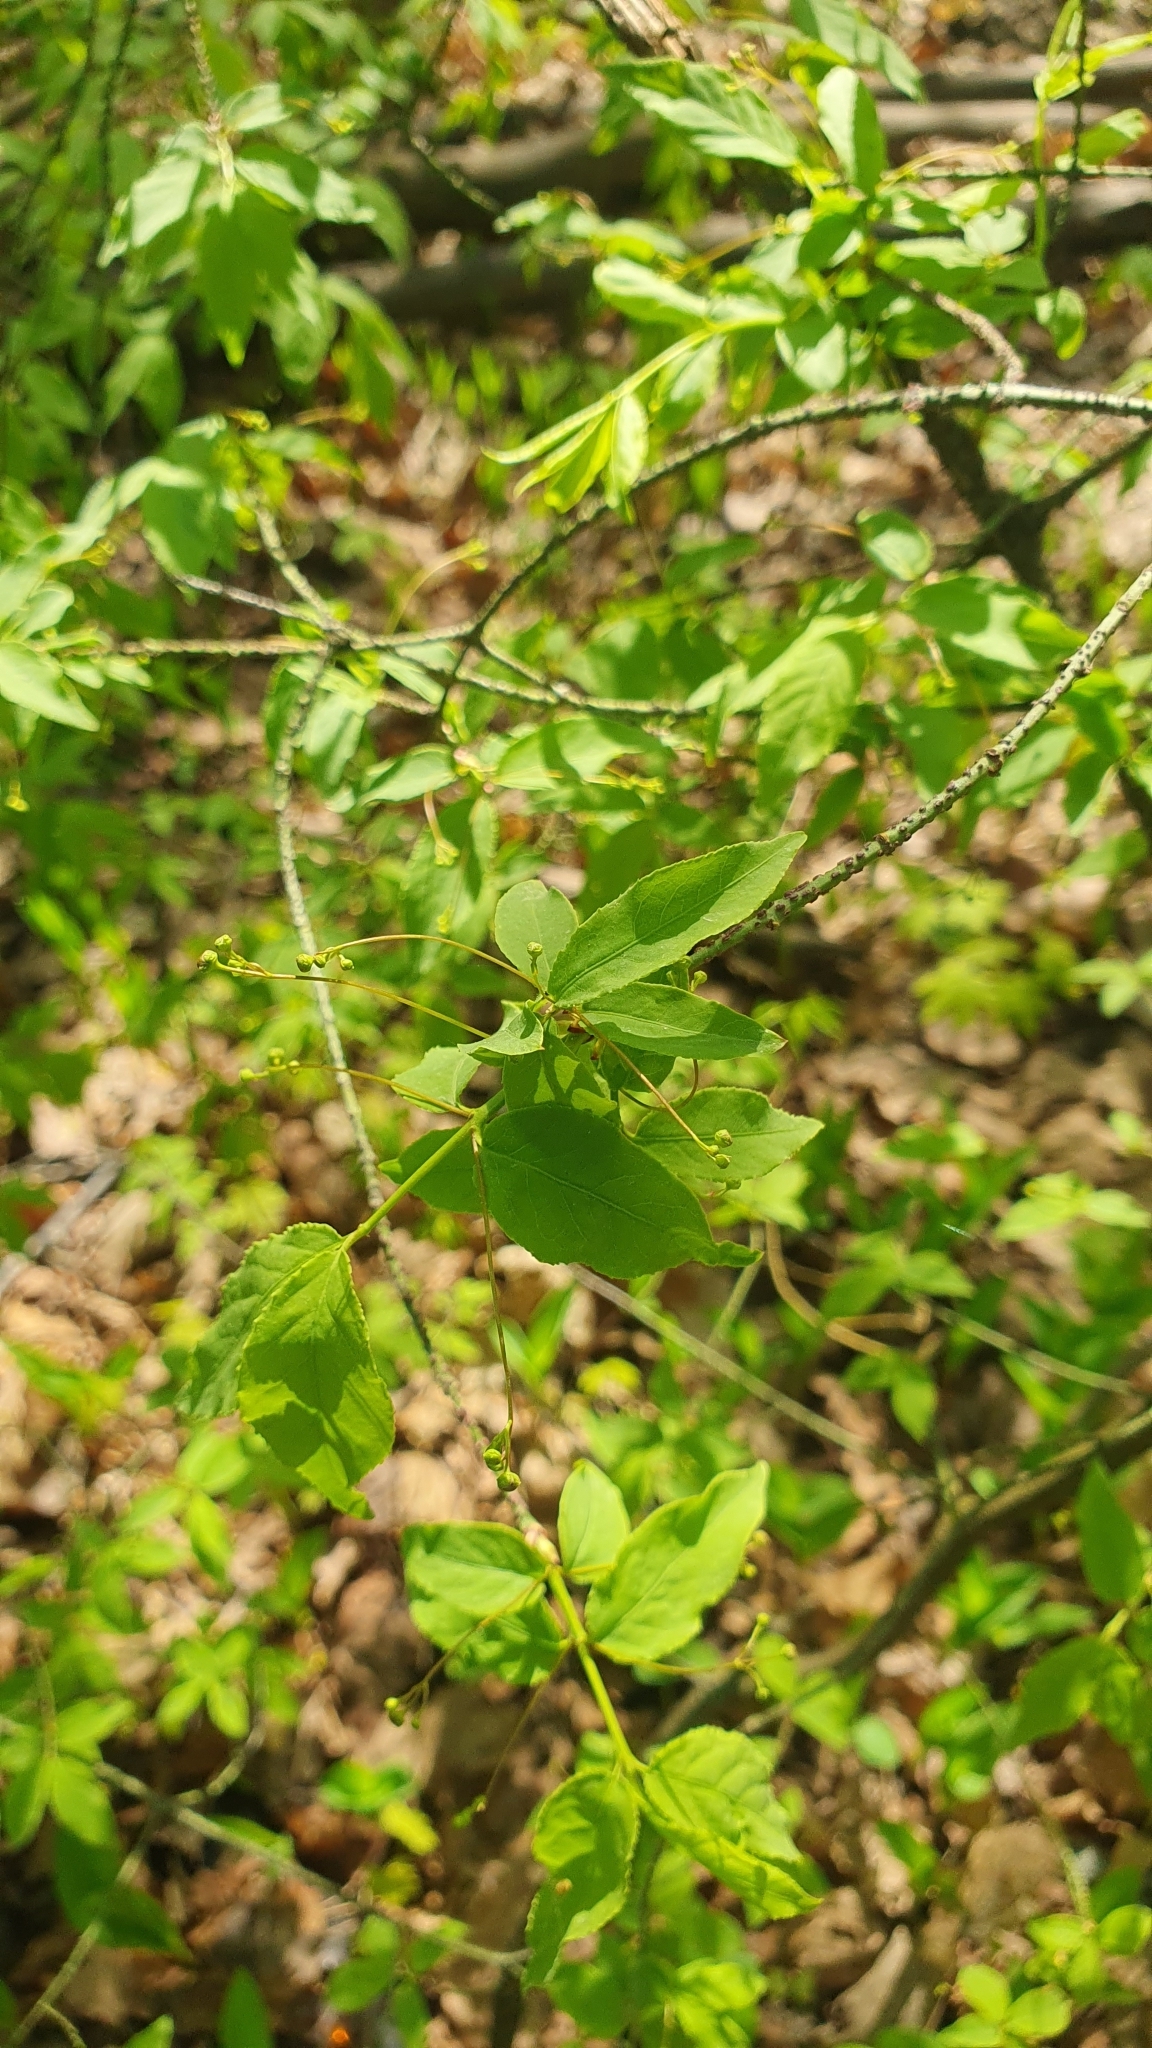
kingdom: Plantae
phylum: Tracheophyta
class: Magnoliopsida
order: Celastrales
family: Celastraceae
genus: Euonymus
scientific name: Euonymus verrucosus
